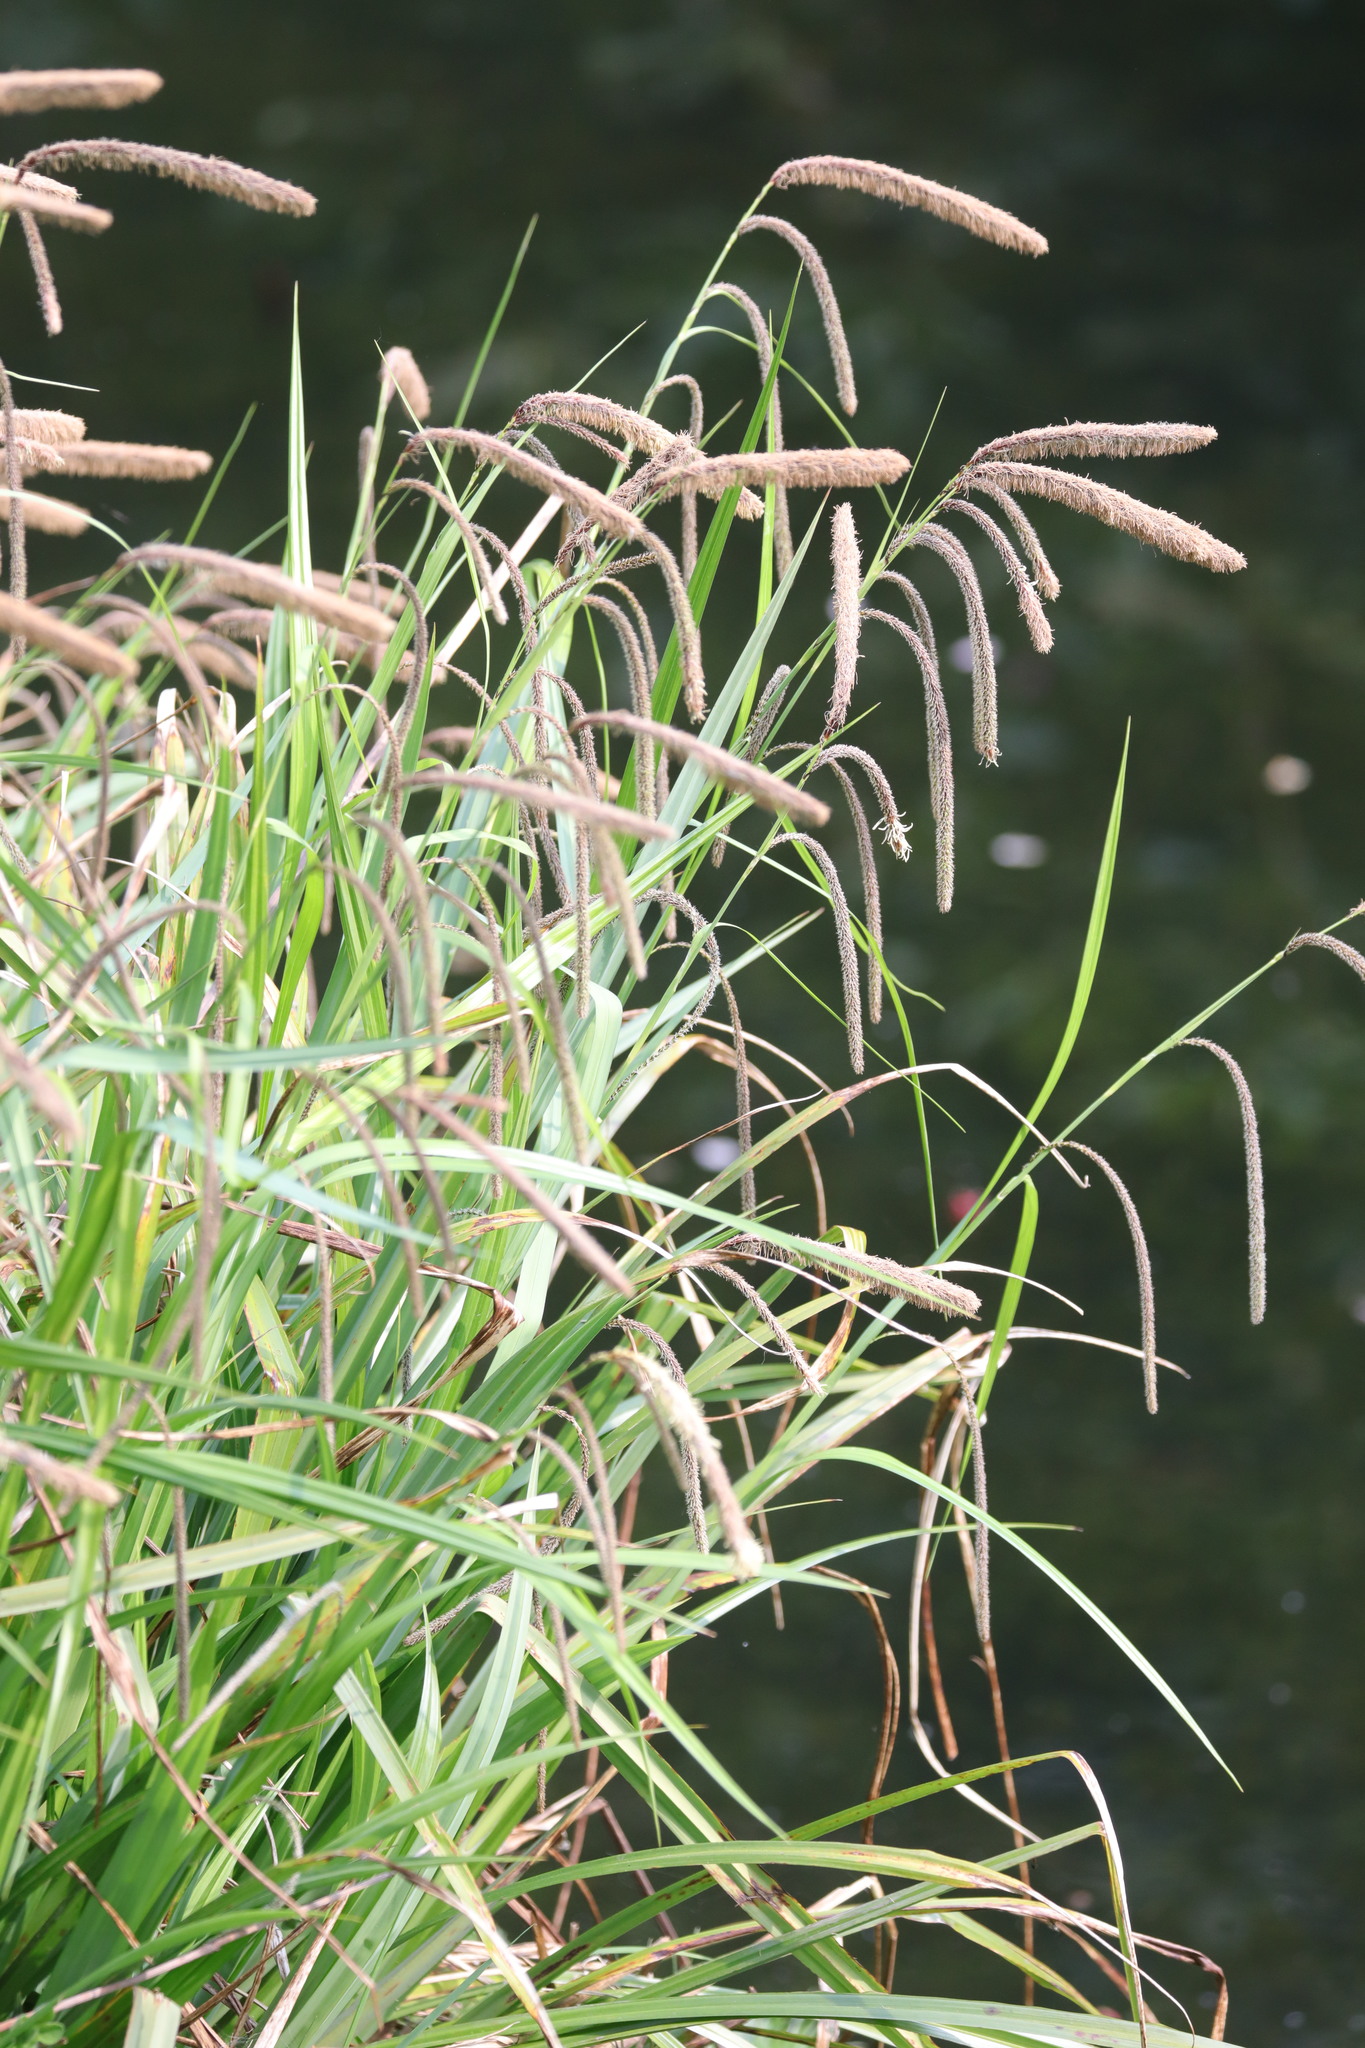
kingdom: Plantae
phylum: Tracheophyta
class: Liliopsida
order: Poales
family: Cyperaceae
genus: Carex
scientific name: Carex pendula
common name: Pendulous sedge
